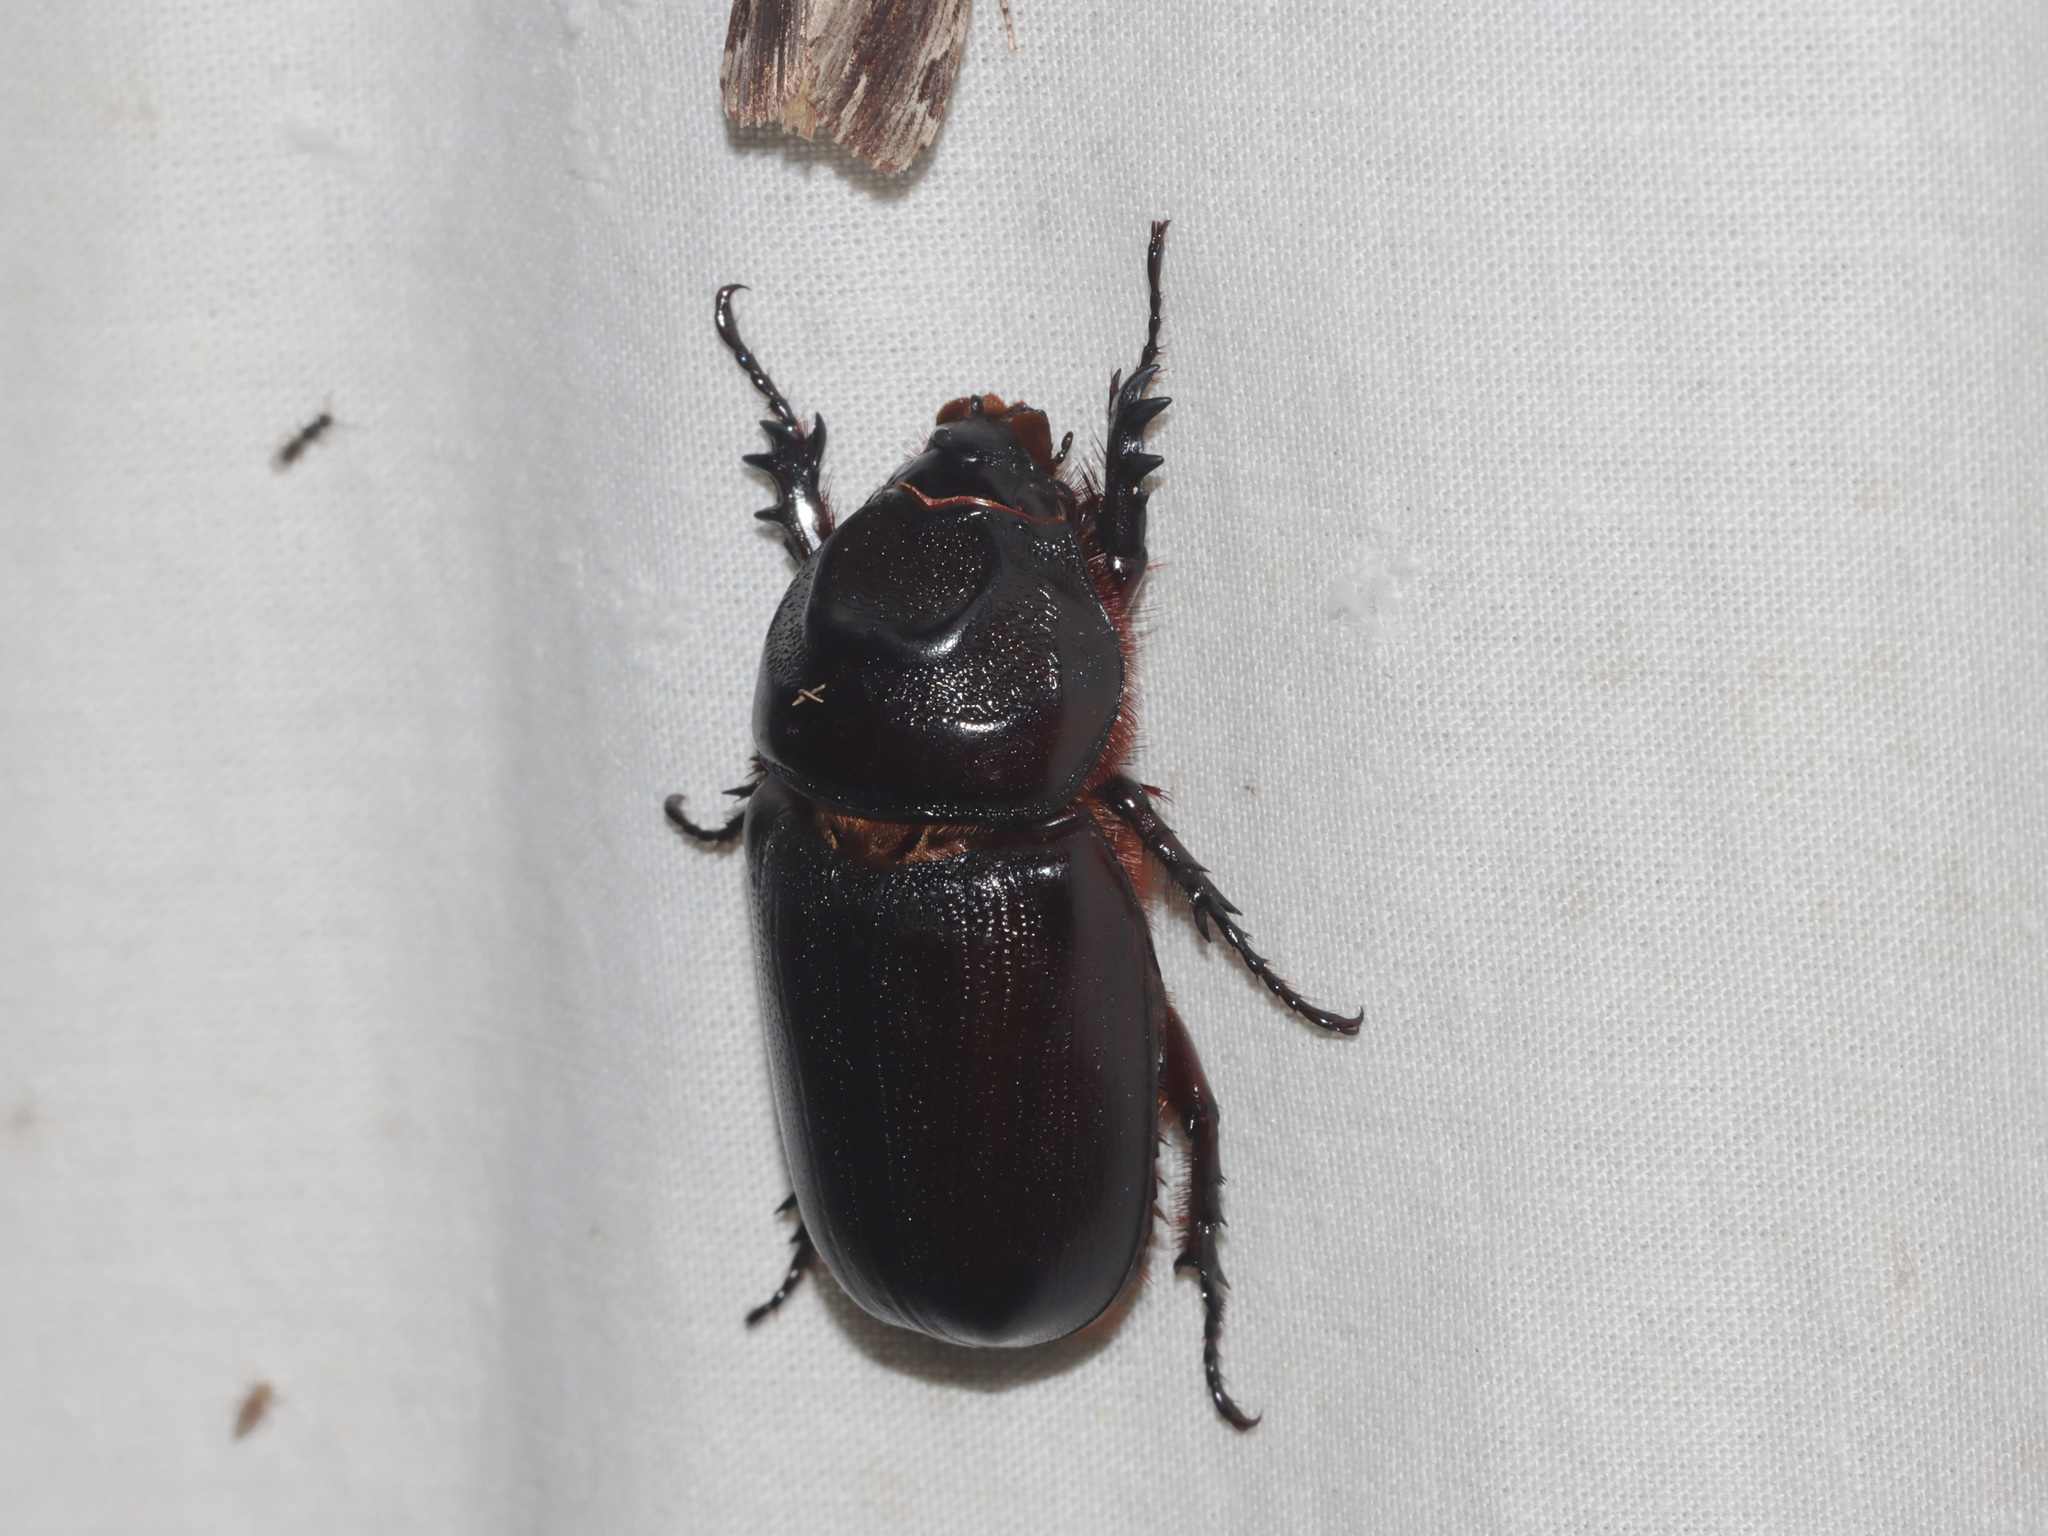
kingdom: Animalia
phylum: Arthropoda
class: Insecta
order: Coleoptera
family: Scarabaeidae
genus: Oryctes
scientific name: Oryctes rhinoceros
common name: Coconut rhinoceros beetle
